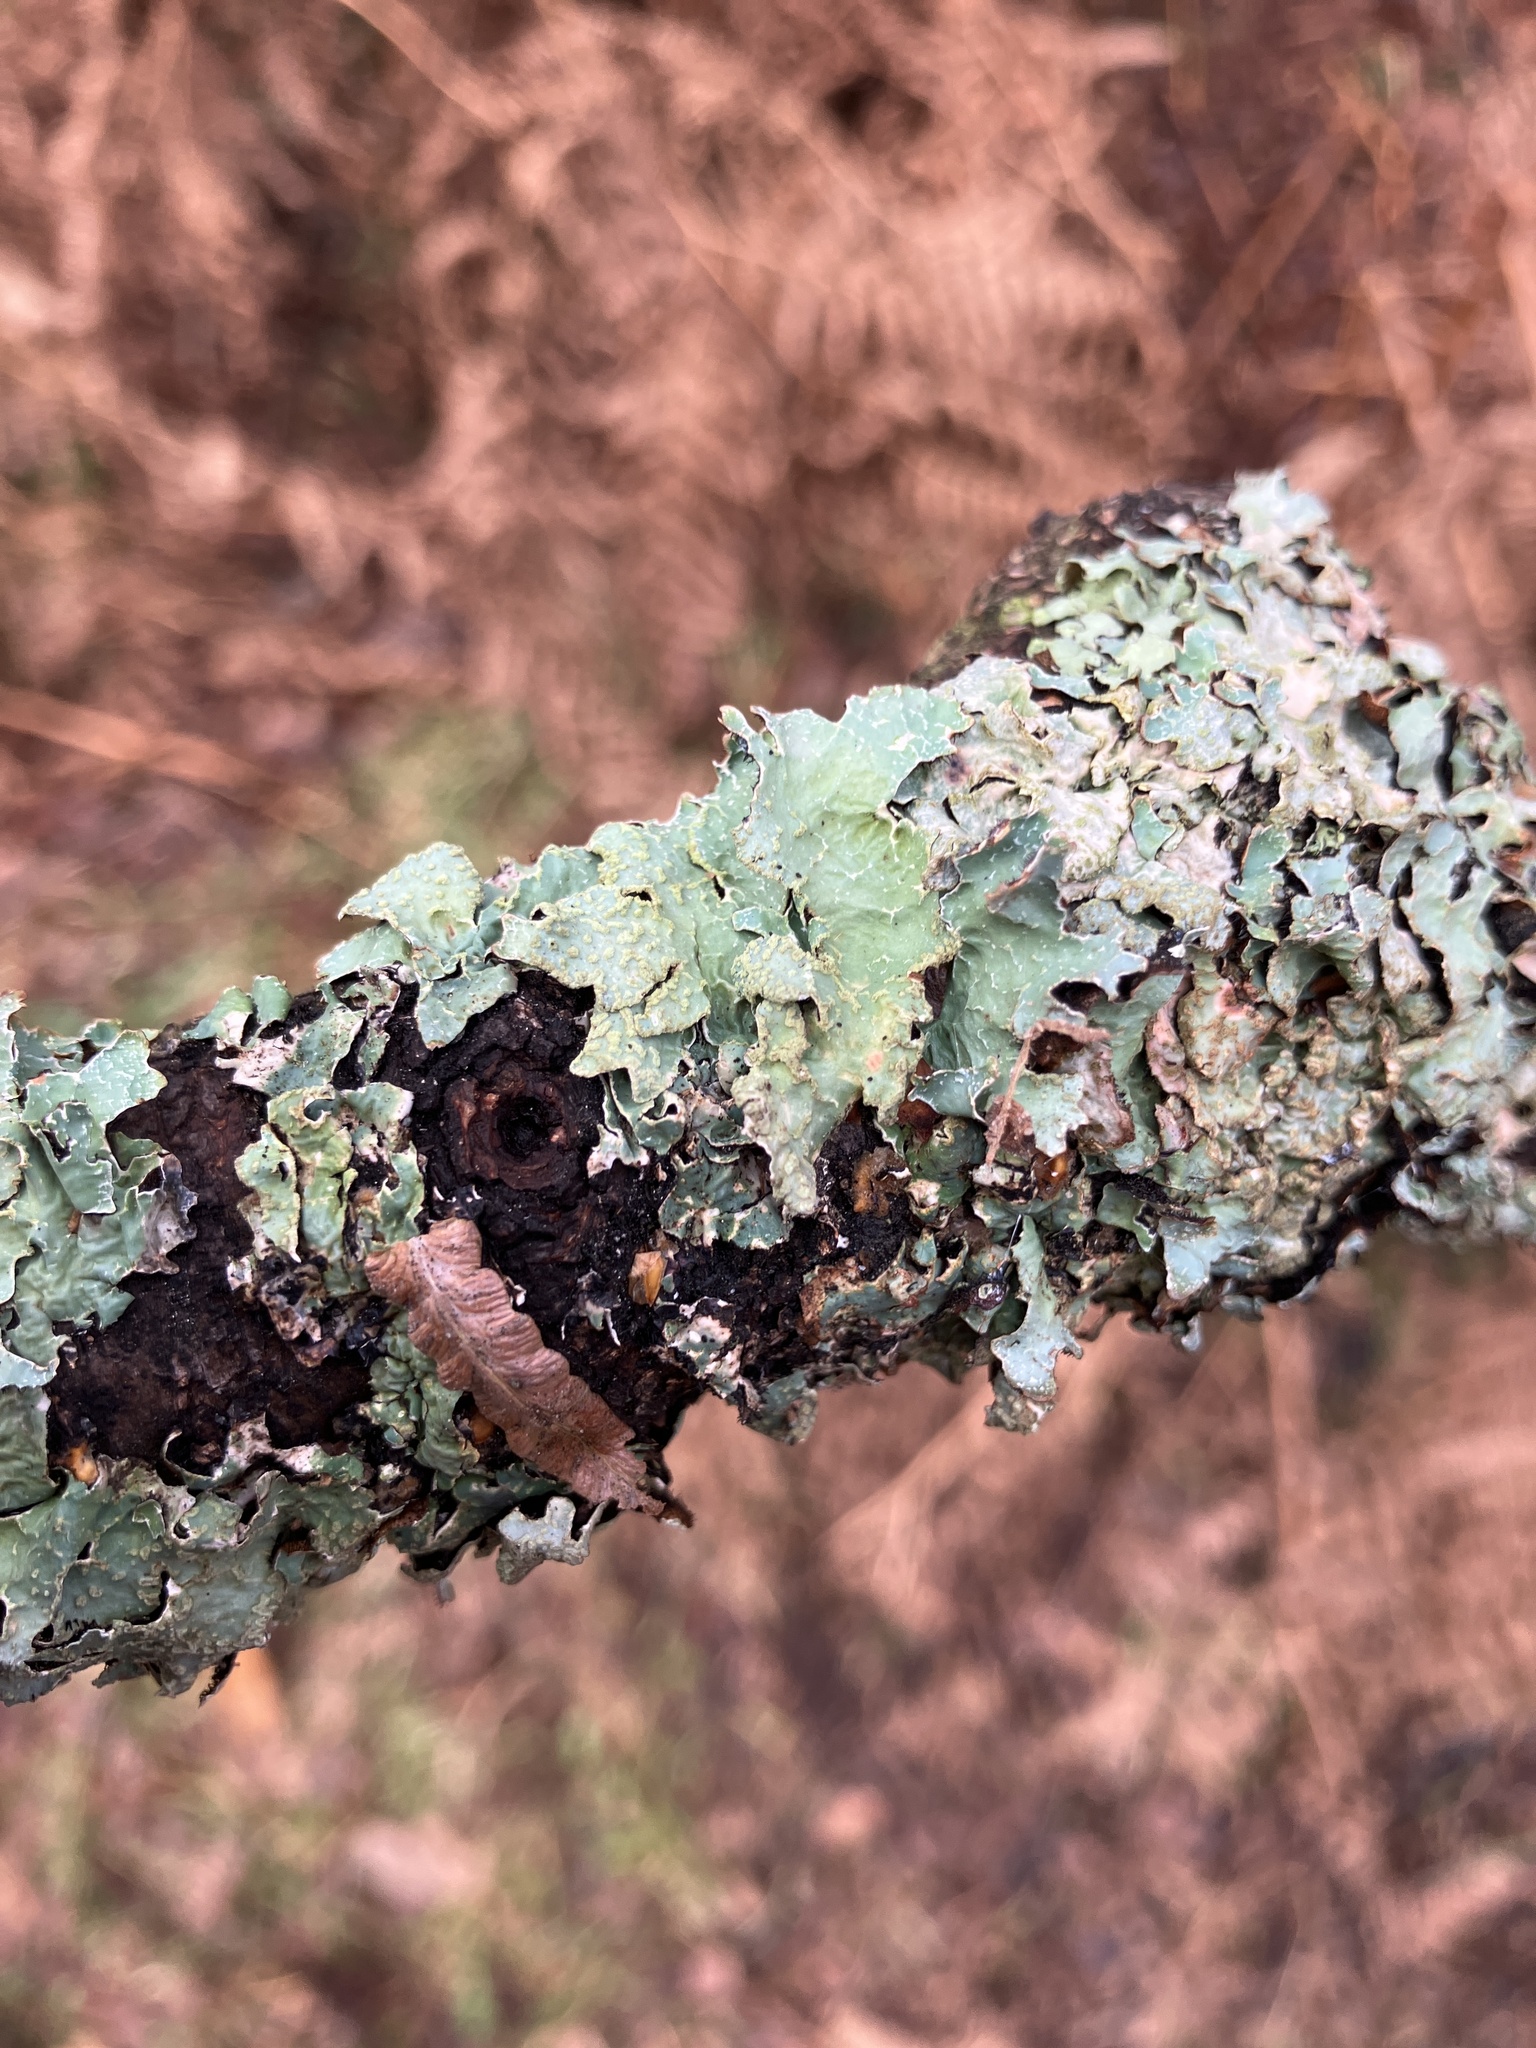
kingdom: Fungi
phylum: Ascomycota
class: Lecanoromycetes
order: Lecanorales
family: Parmeliaceae
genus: Parmelia
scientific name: Parmelia sulcata
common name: Netted shield lichen
